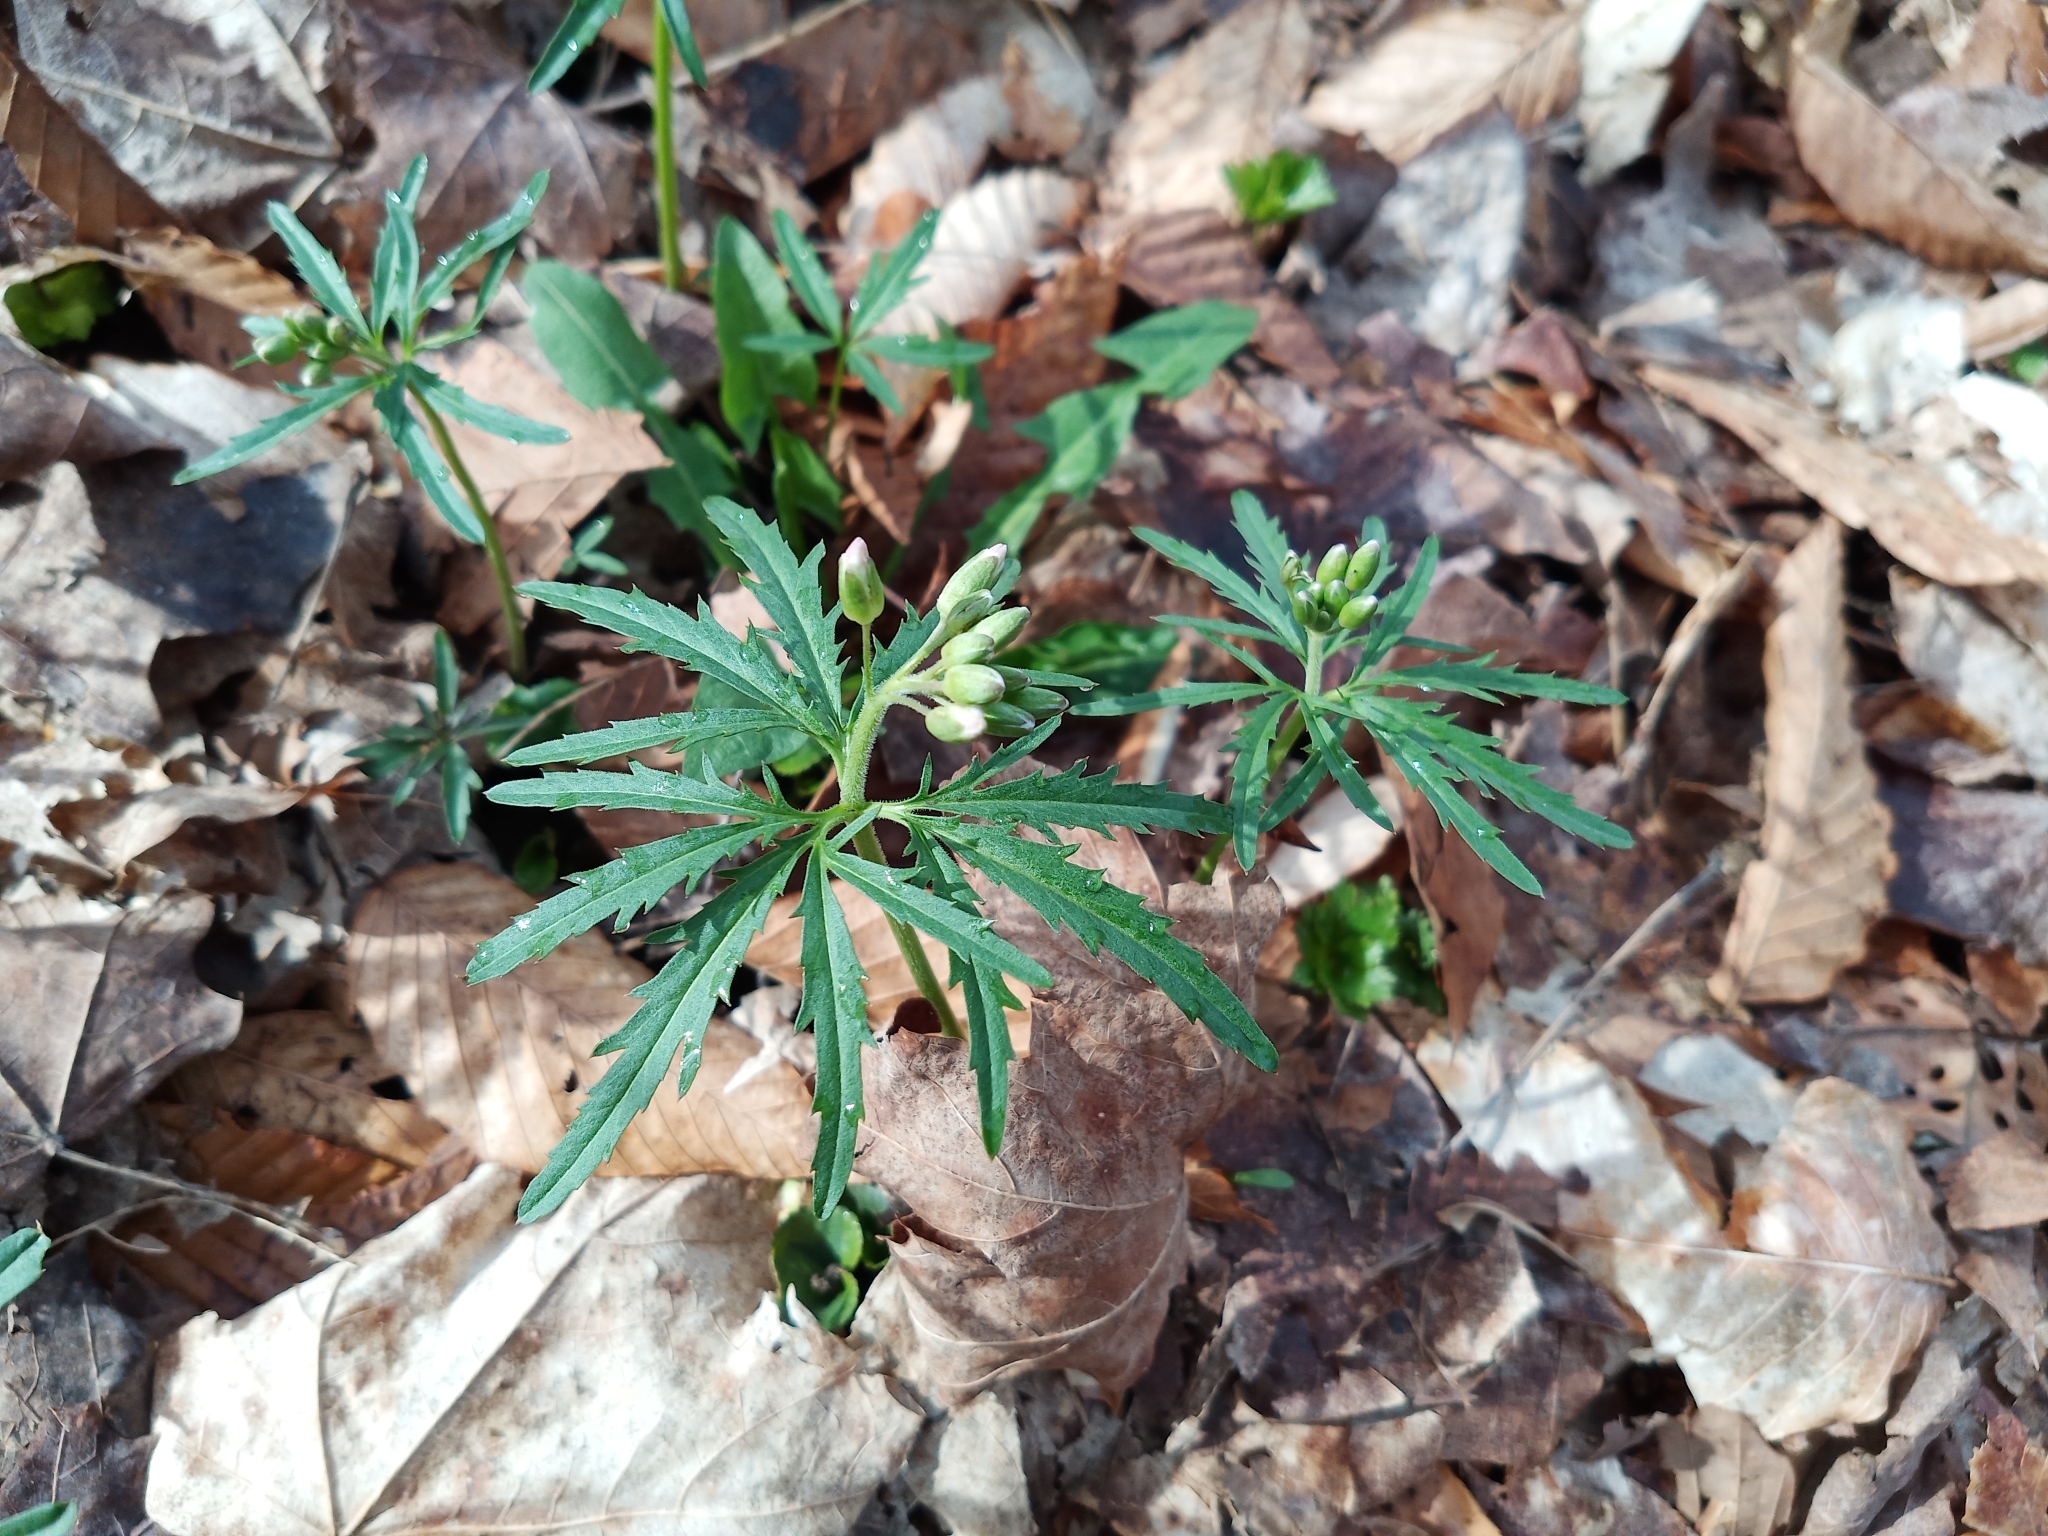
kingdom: Plantae
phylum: Tracheophyta
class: Magnoliopsida
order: Brassicales
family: Brassicaceae
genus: Cardamine
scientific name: Cardamine concatenata
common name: Cut-leaf toothcup
